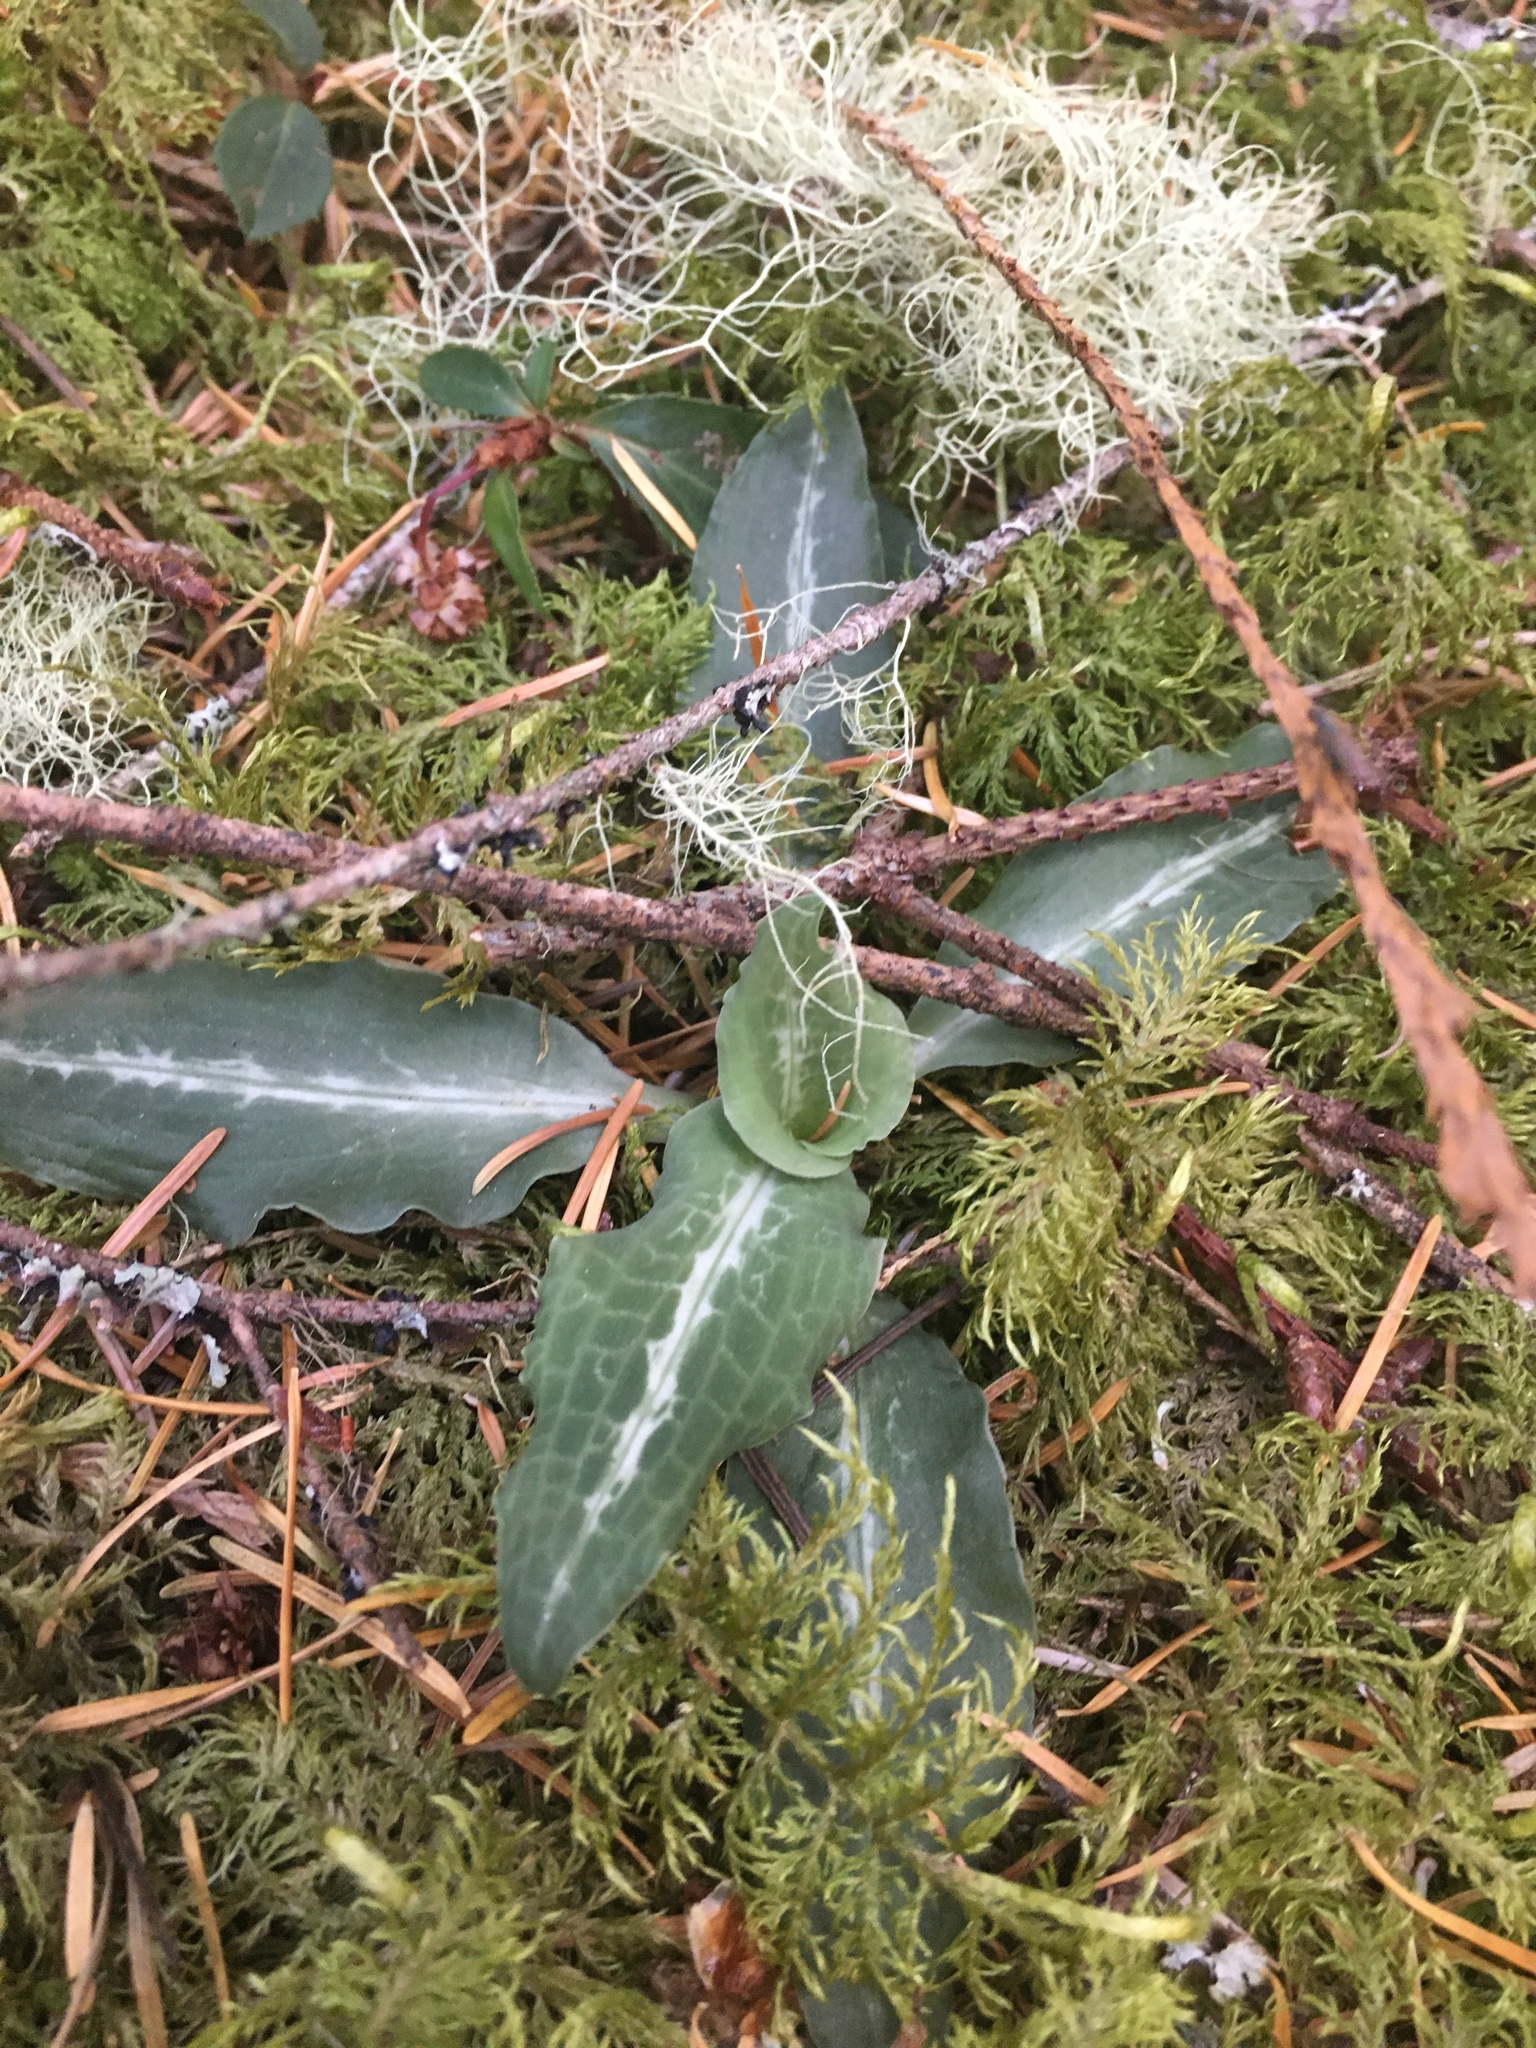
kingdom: Plantae
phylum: Tracheophyta
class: Liliopsida
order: Asparagales
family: Orchidaceae
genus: Goodyera
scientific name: Goodyera oblongifolia
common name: Giant rattlesnake-plantain
